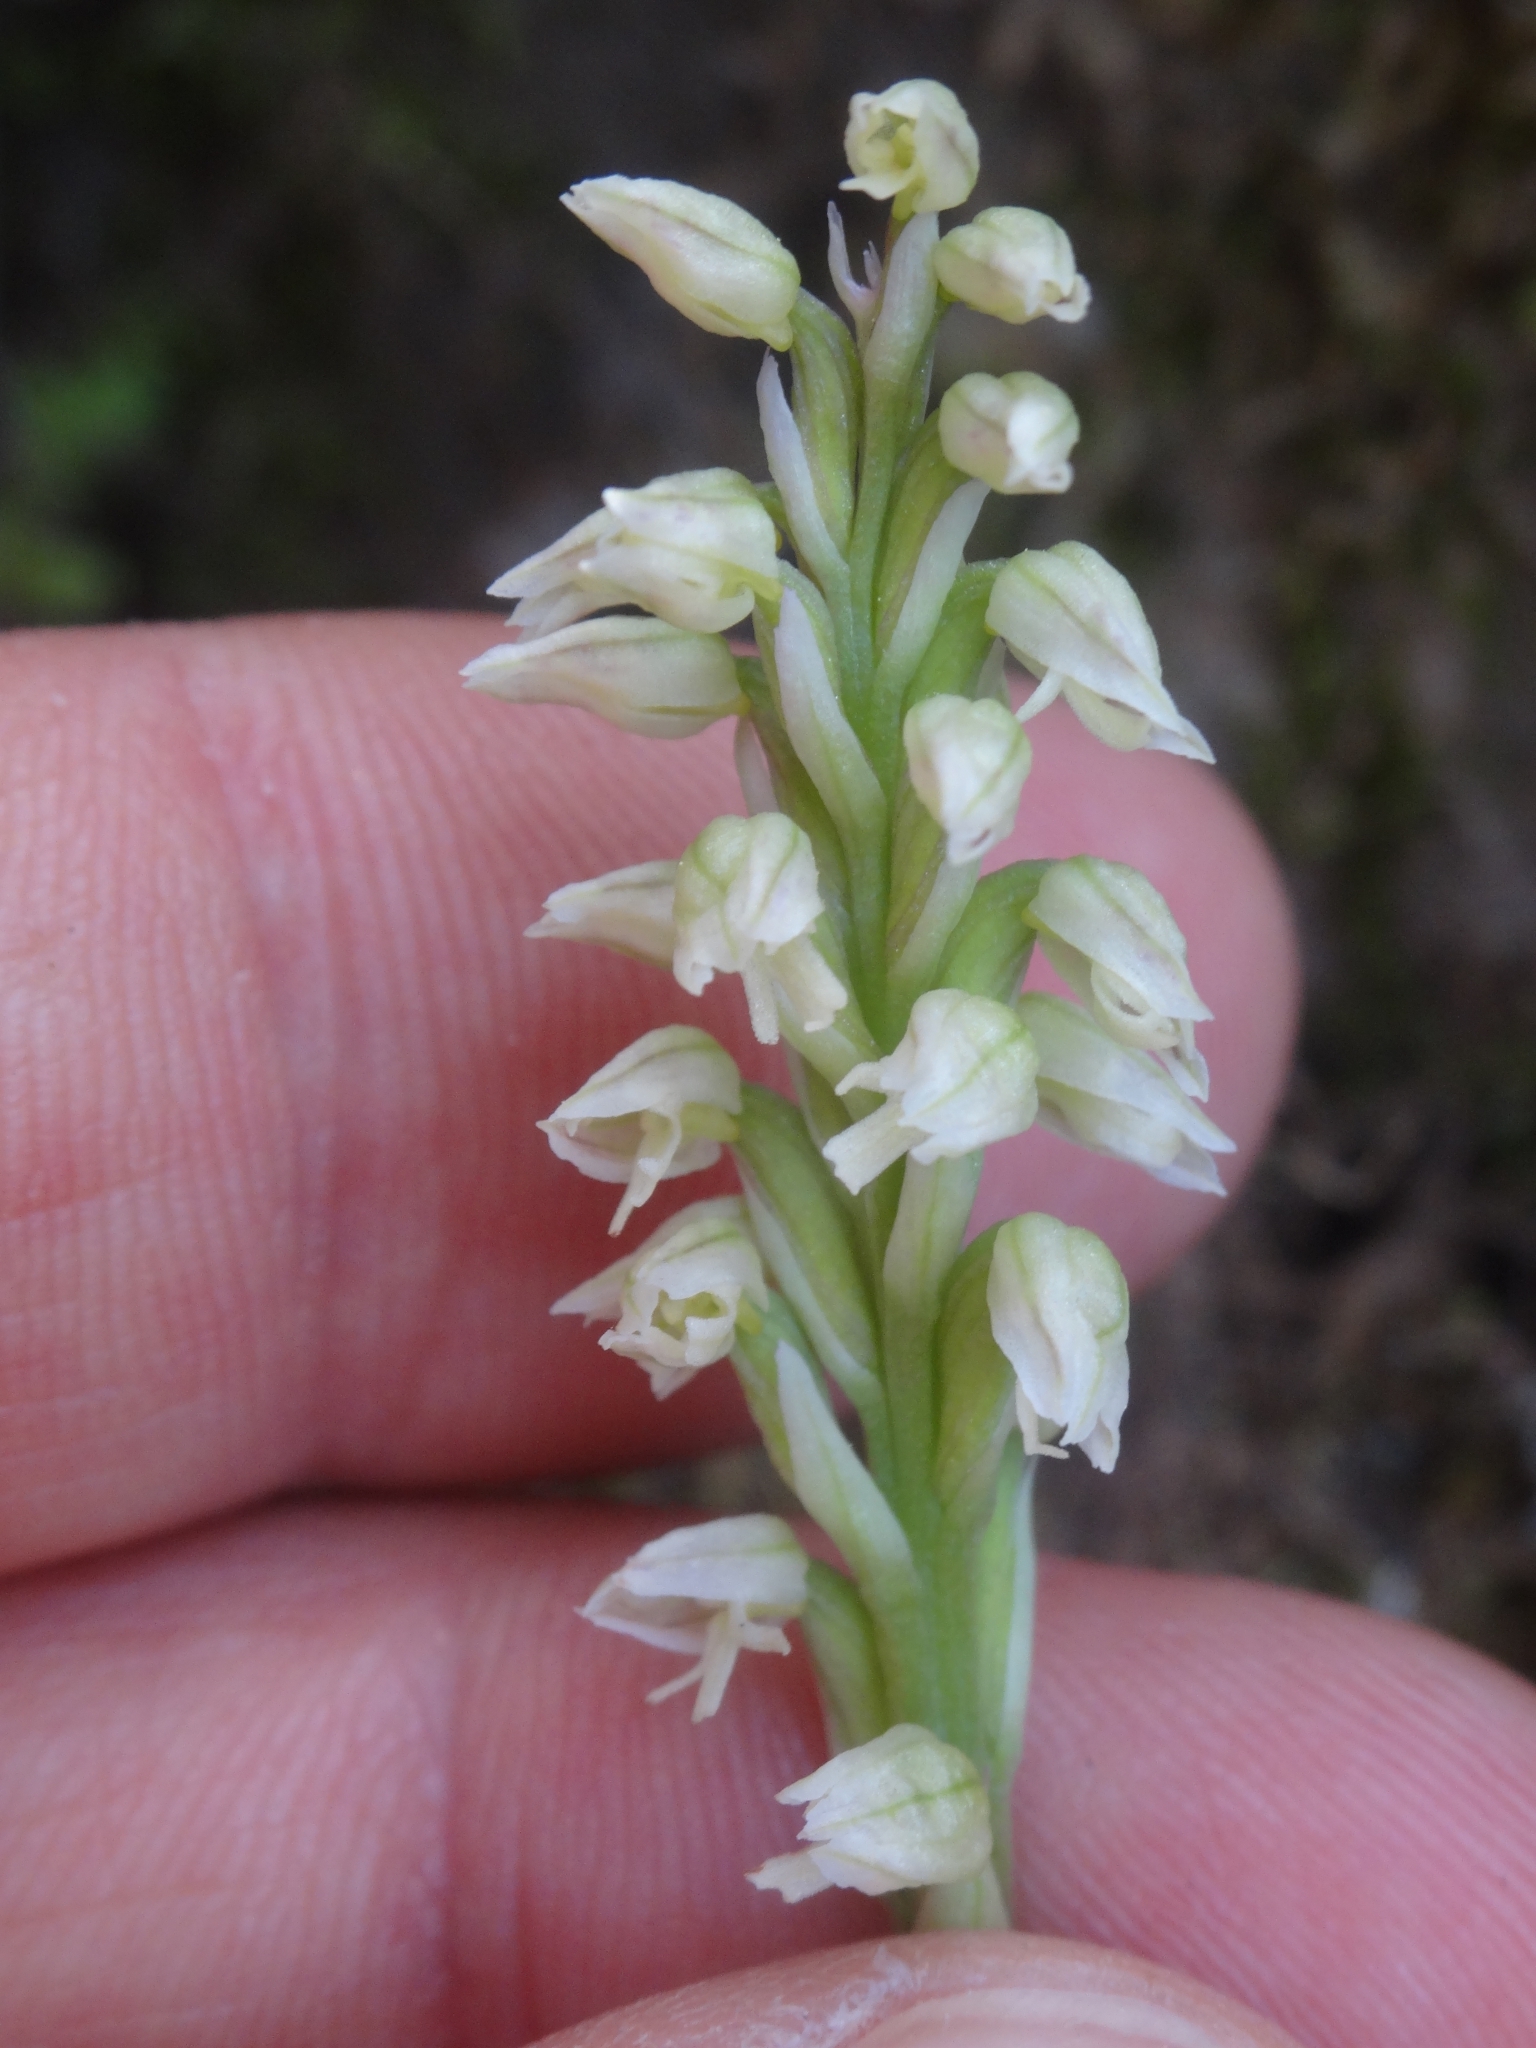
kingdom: Plantae
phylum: Tracheophyta
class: Liliopsida
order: Asparagales
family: Orchidaceae
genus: Neotinea
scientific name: Neotinea maculata
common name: Dense-flowered orchid
